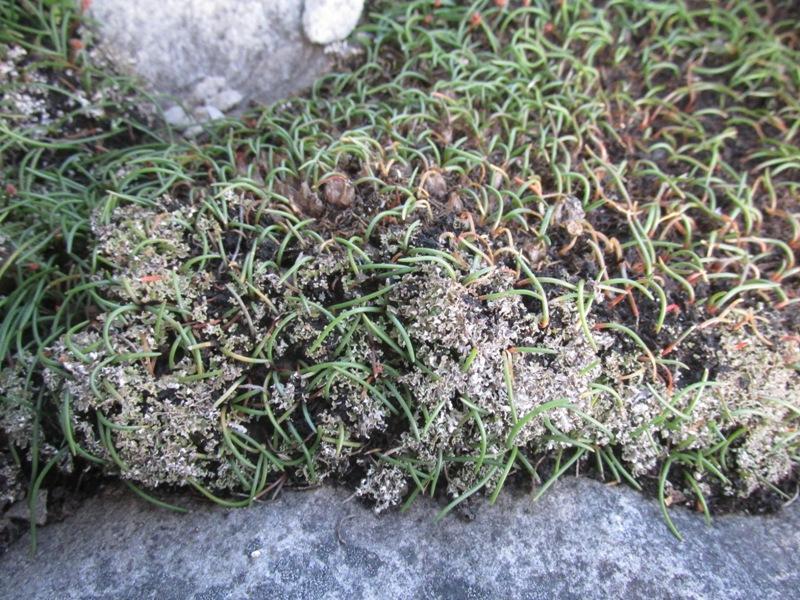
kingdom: Plantae
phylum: Tracheophyta
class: Liliopsida
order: Asparagales
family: Asparagaceae
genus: Austronea
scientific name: Austronea virens
